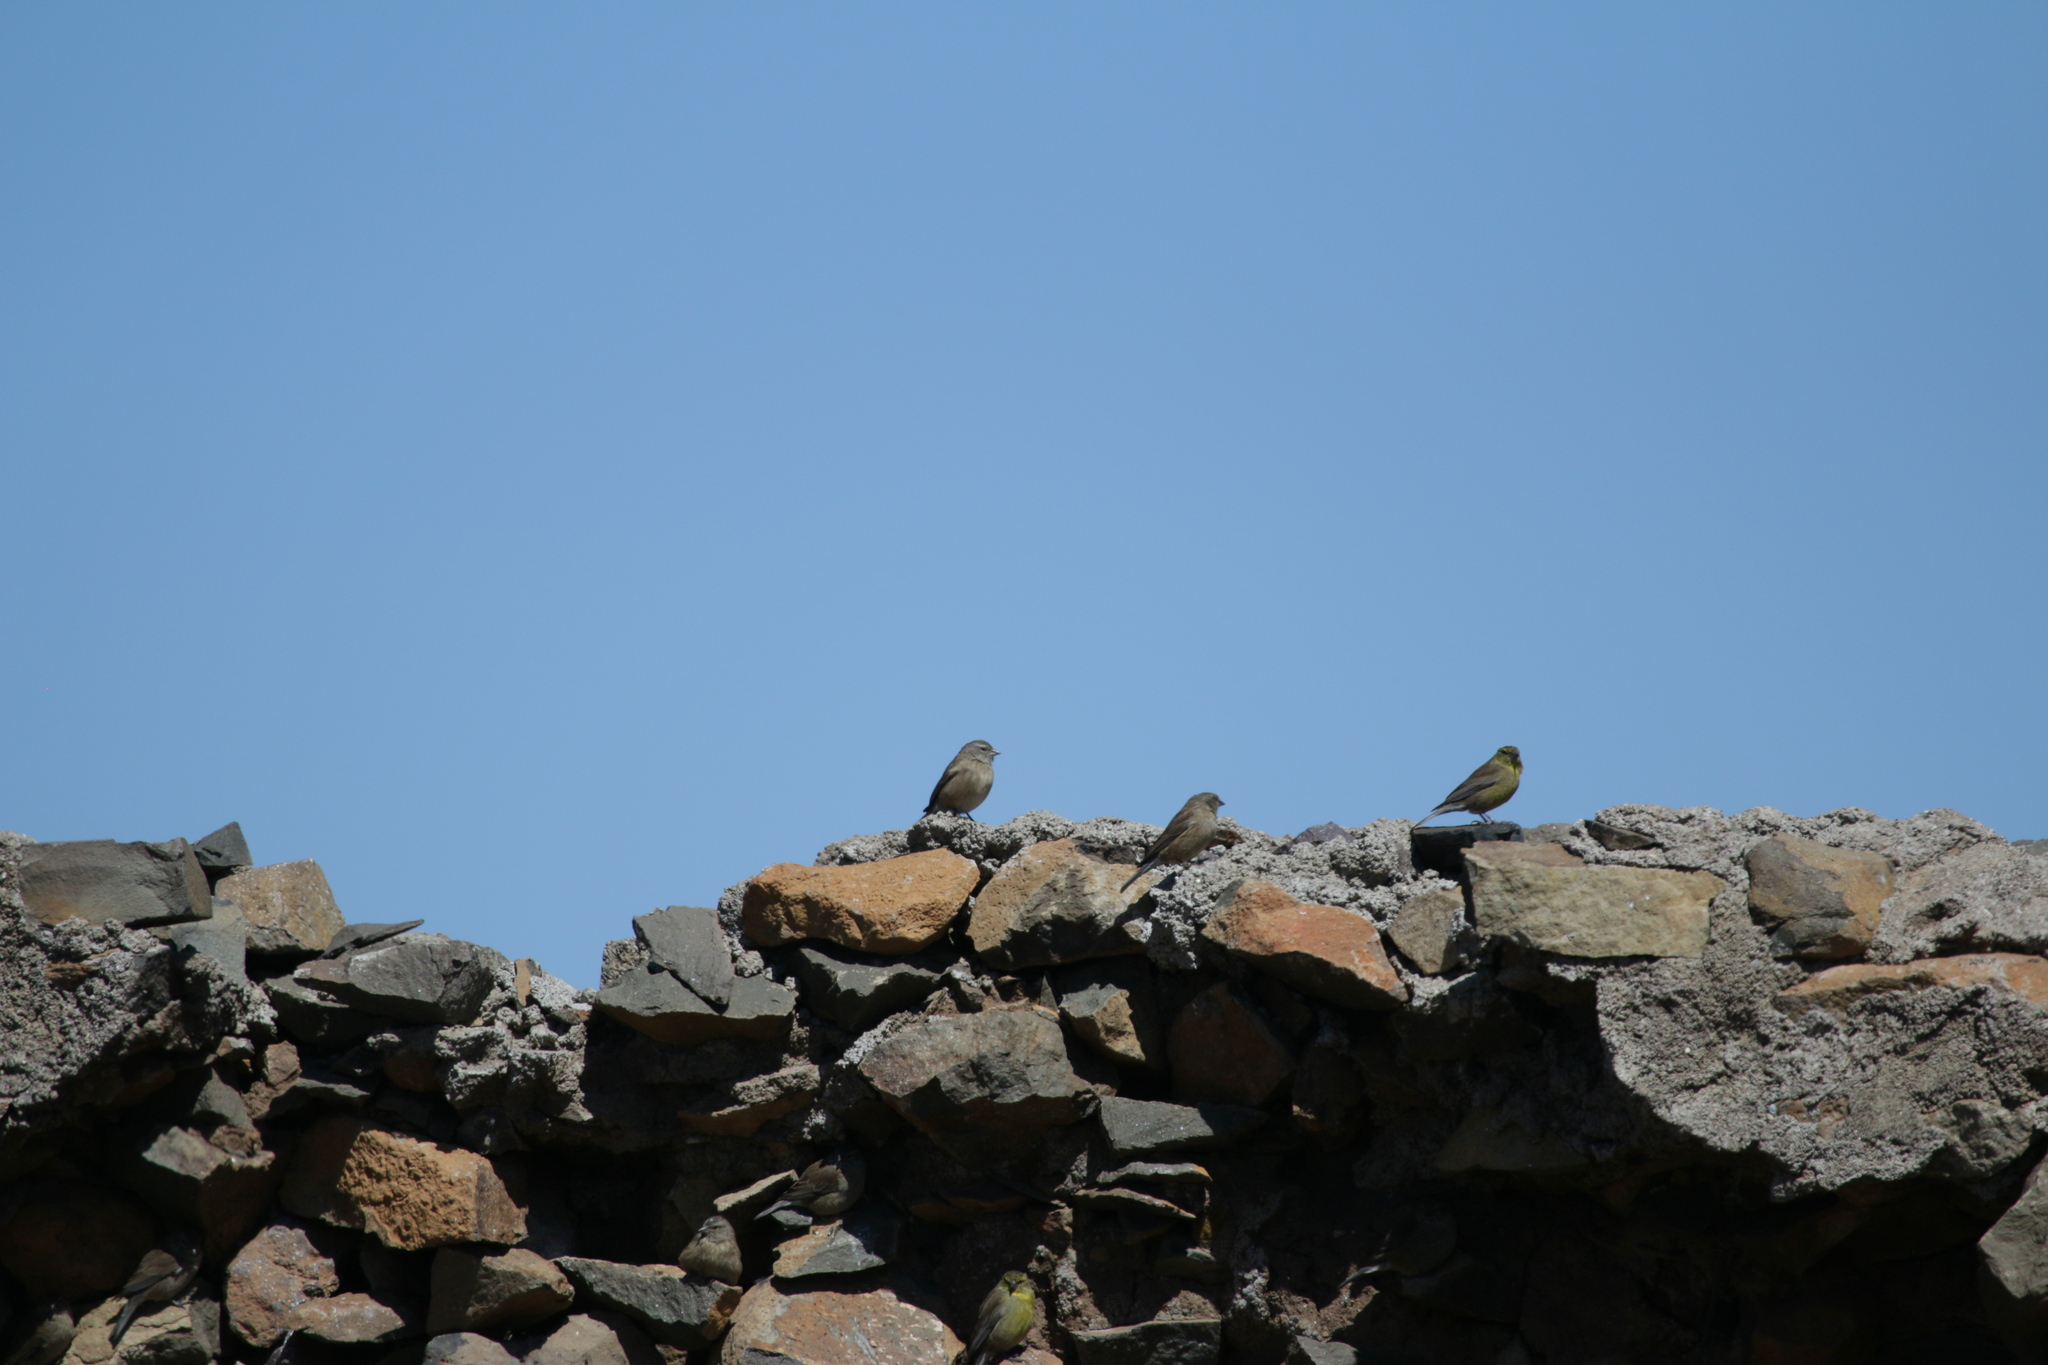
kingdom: Animalia
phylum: Chordata
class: Aves
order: Passeriformes
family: Fringillidae
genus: Crithagra
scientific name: Crithagra symonsi
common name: Drakensberg siskin
